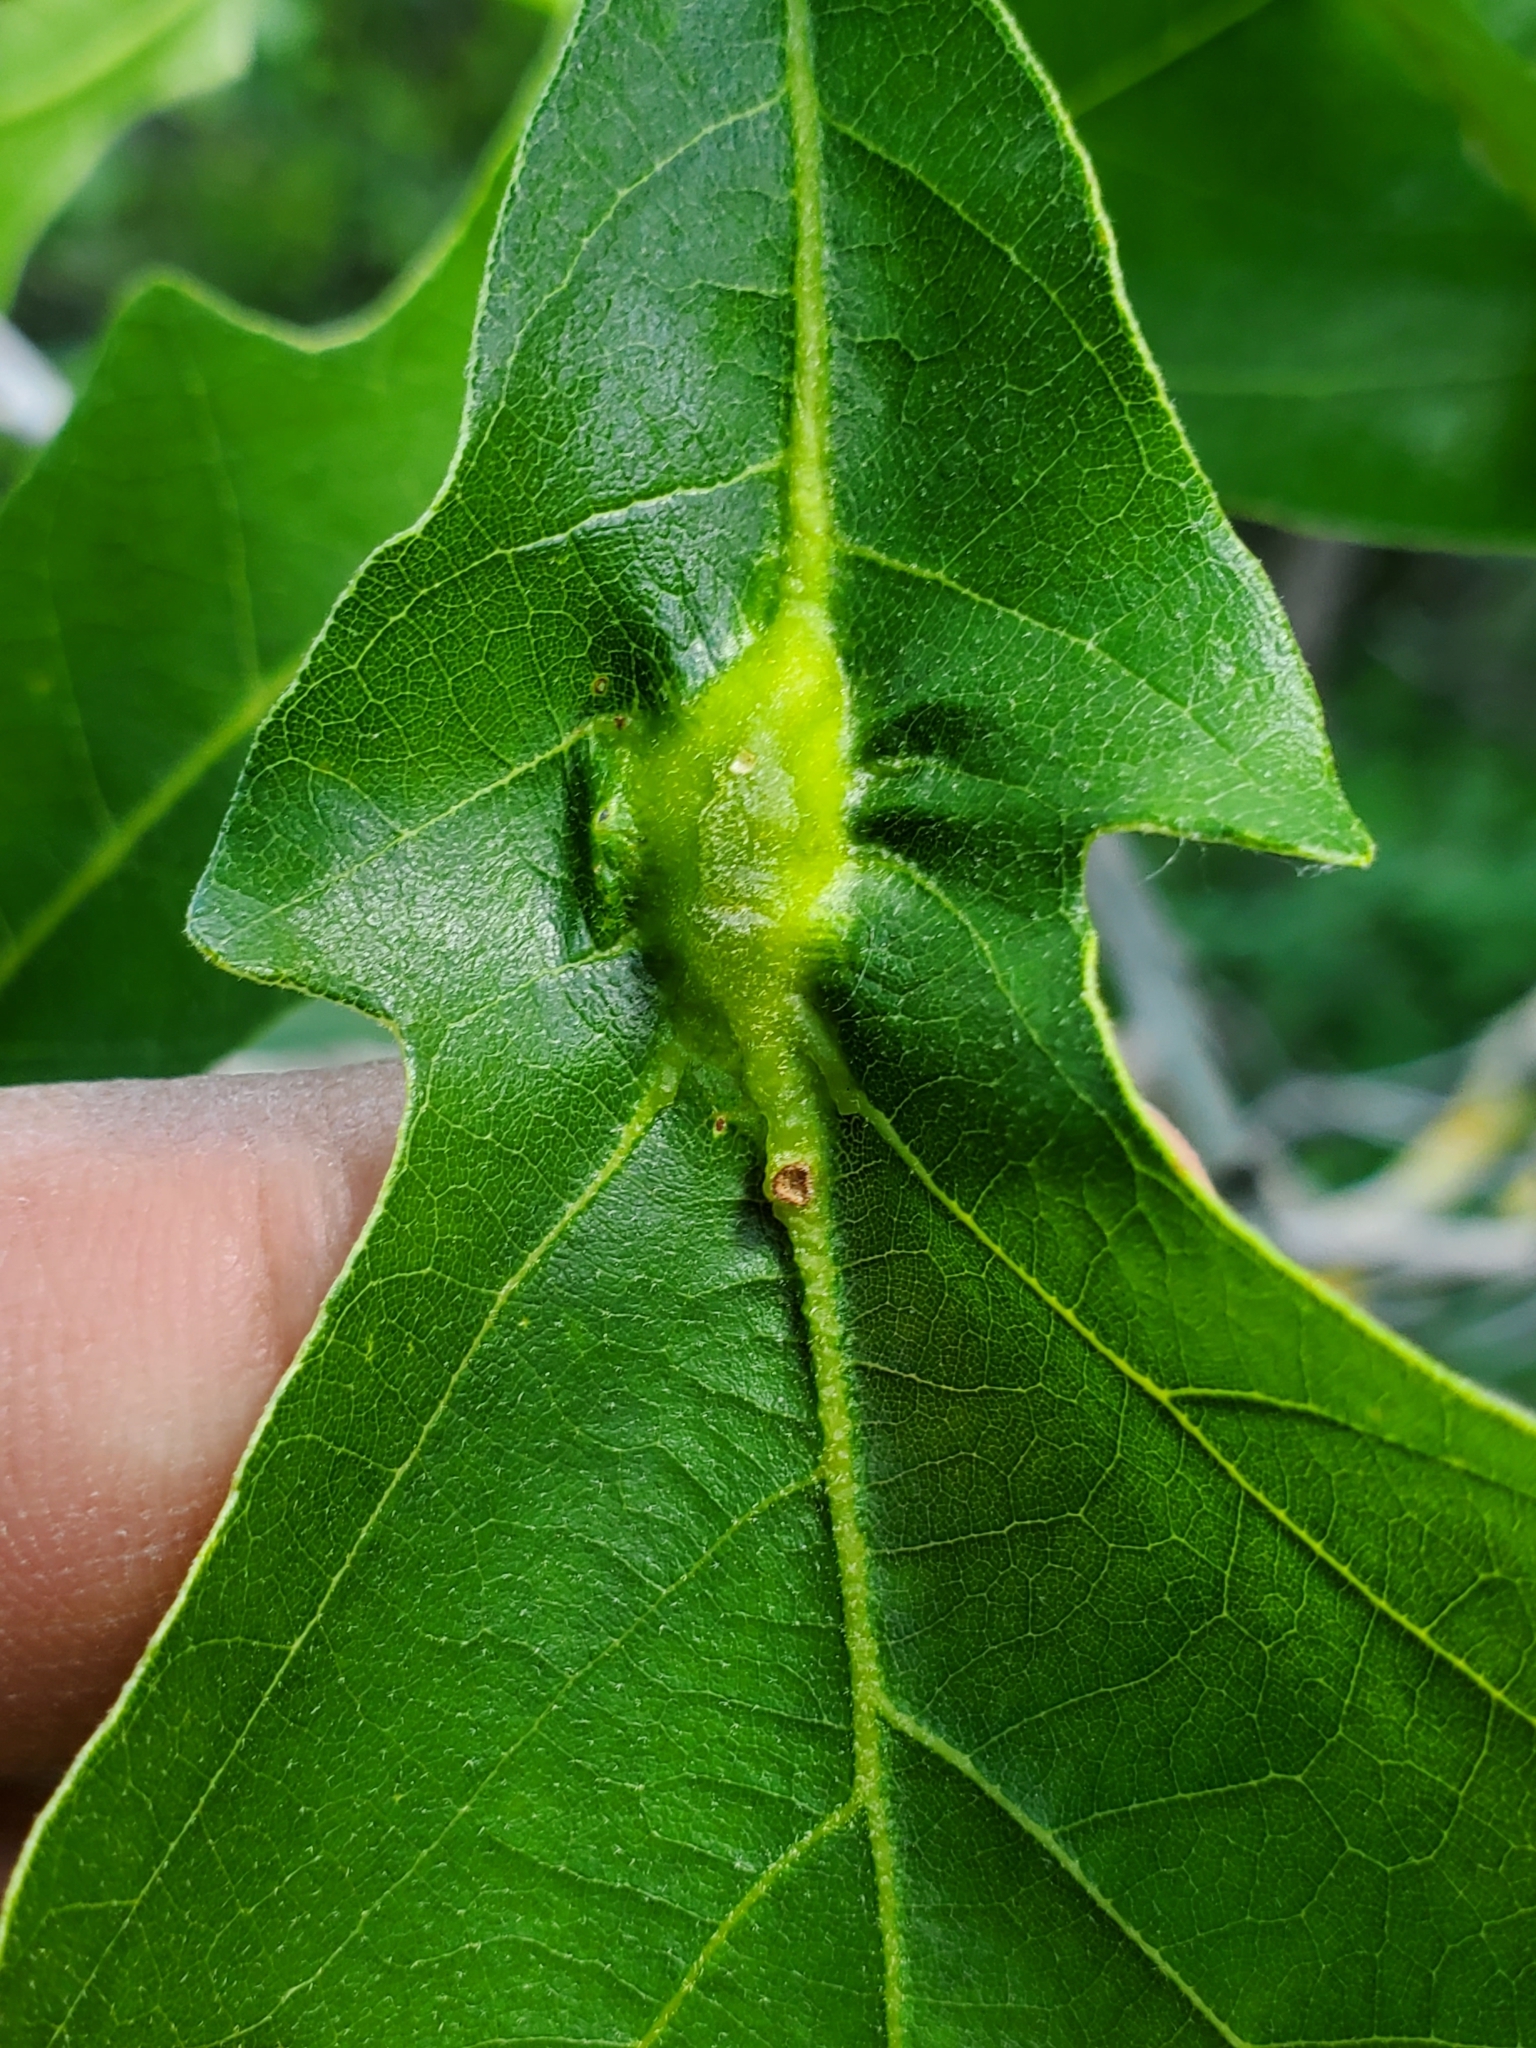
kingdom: Animalia
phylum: Arthropoda
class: Insecta
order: Hymenoptera
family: Cynipidae
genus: Bassettia
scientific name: Bassettia flavipes
